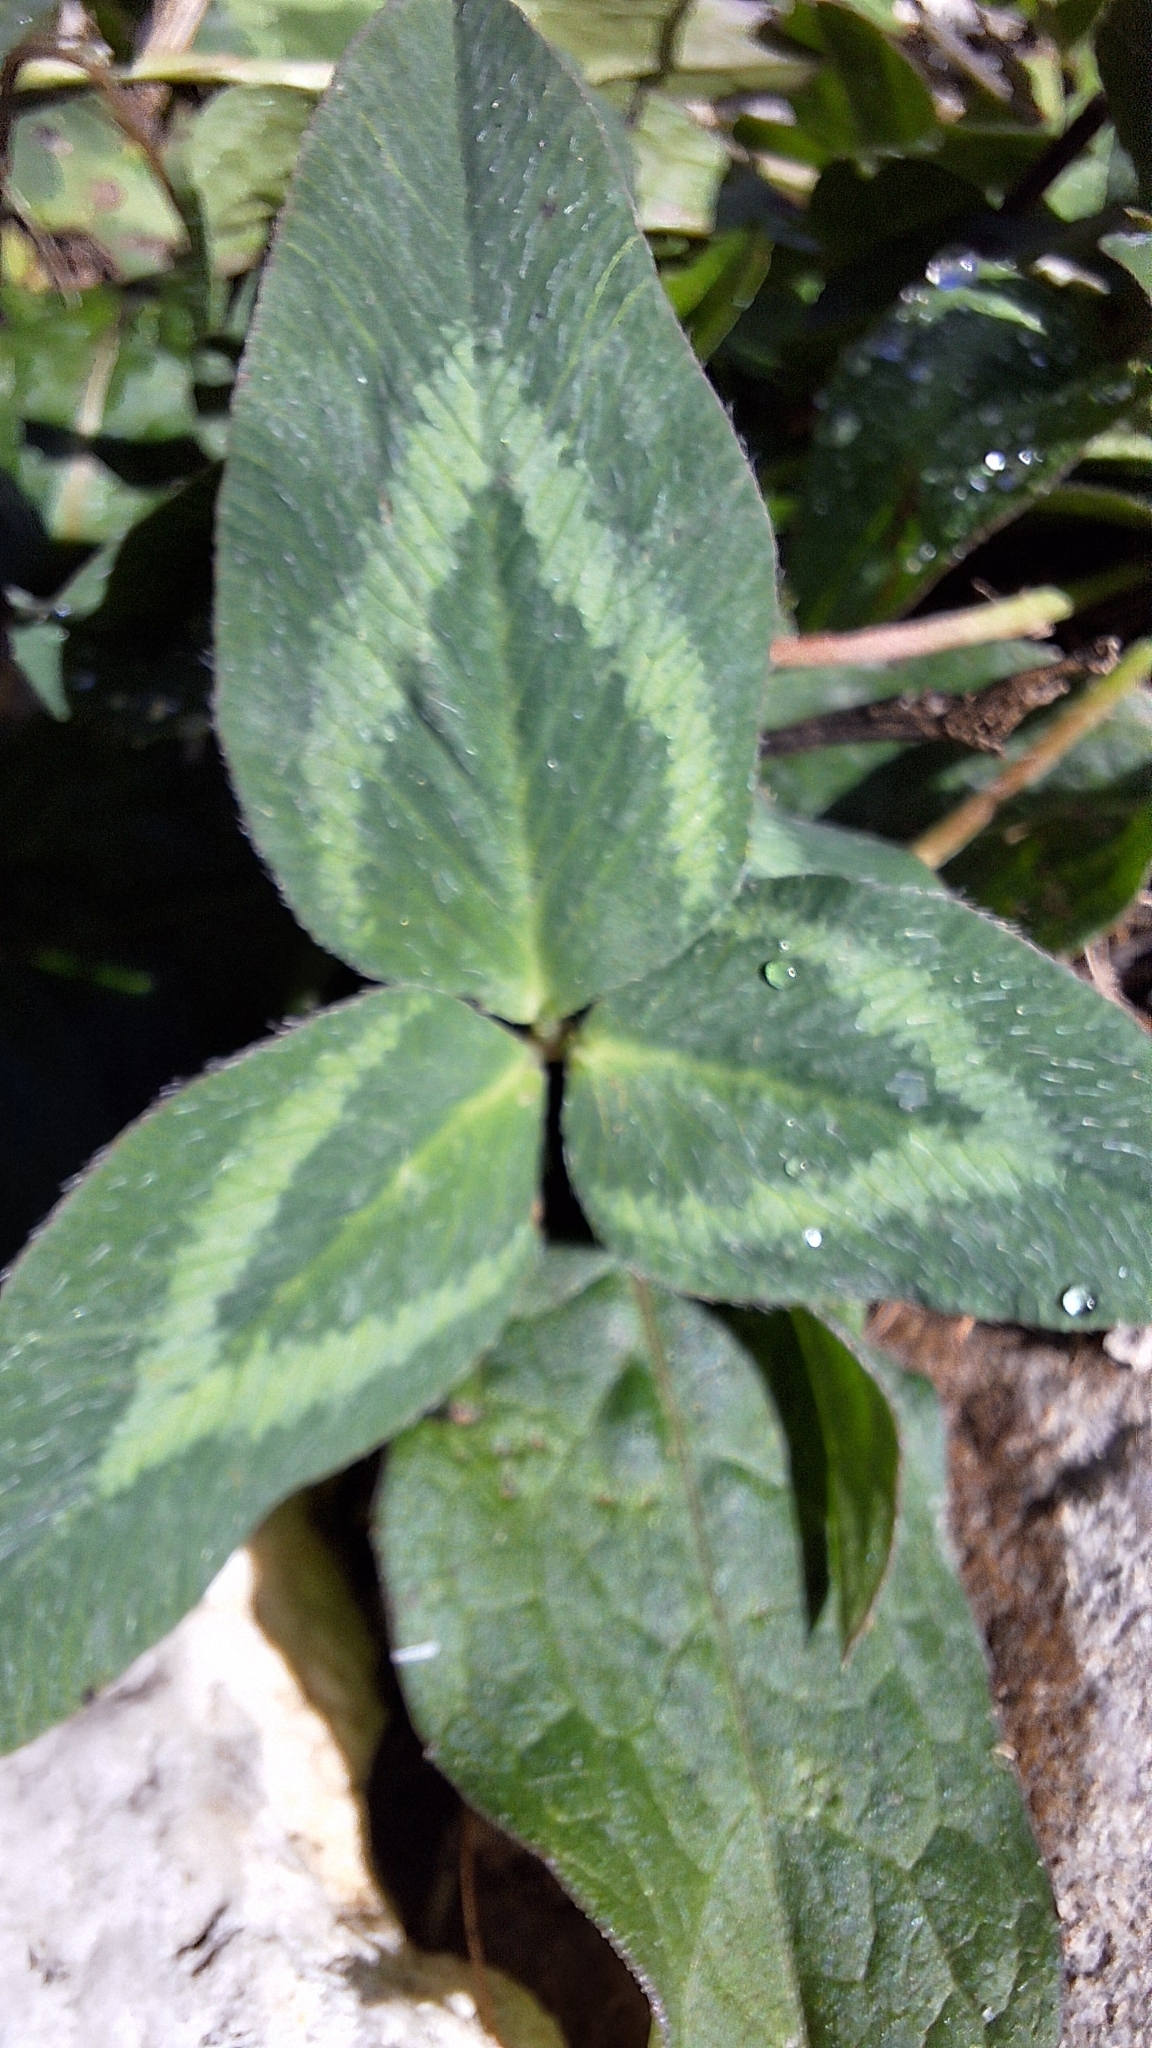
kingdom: Plantae
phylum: Tracheophyta
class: Magnoliopsida
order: Fabales
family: Fabaceae
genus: Trifolium
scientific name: Trifolium pratense
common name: Red clover
